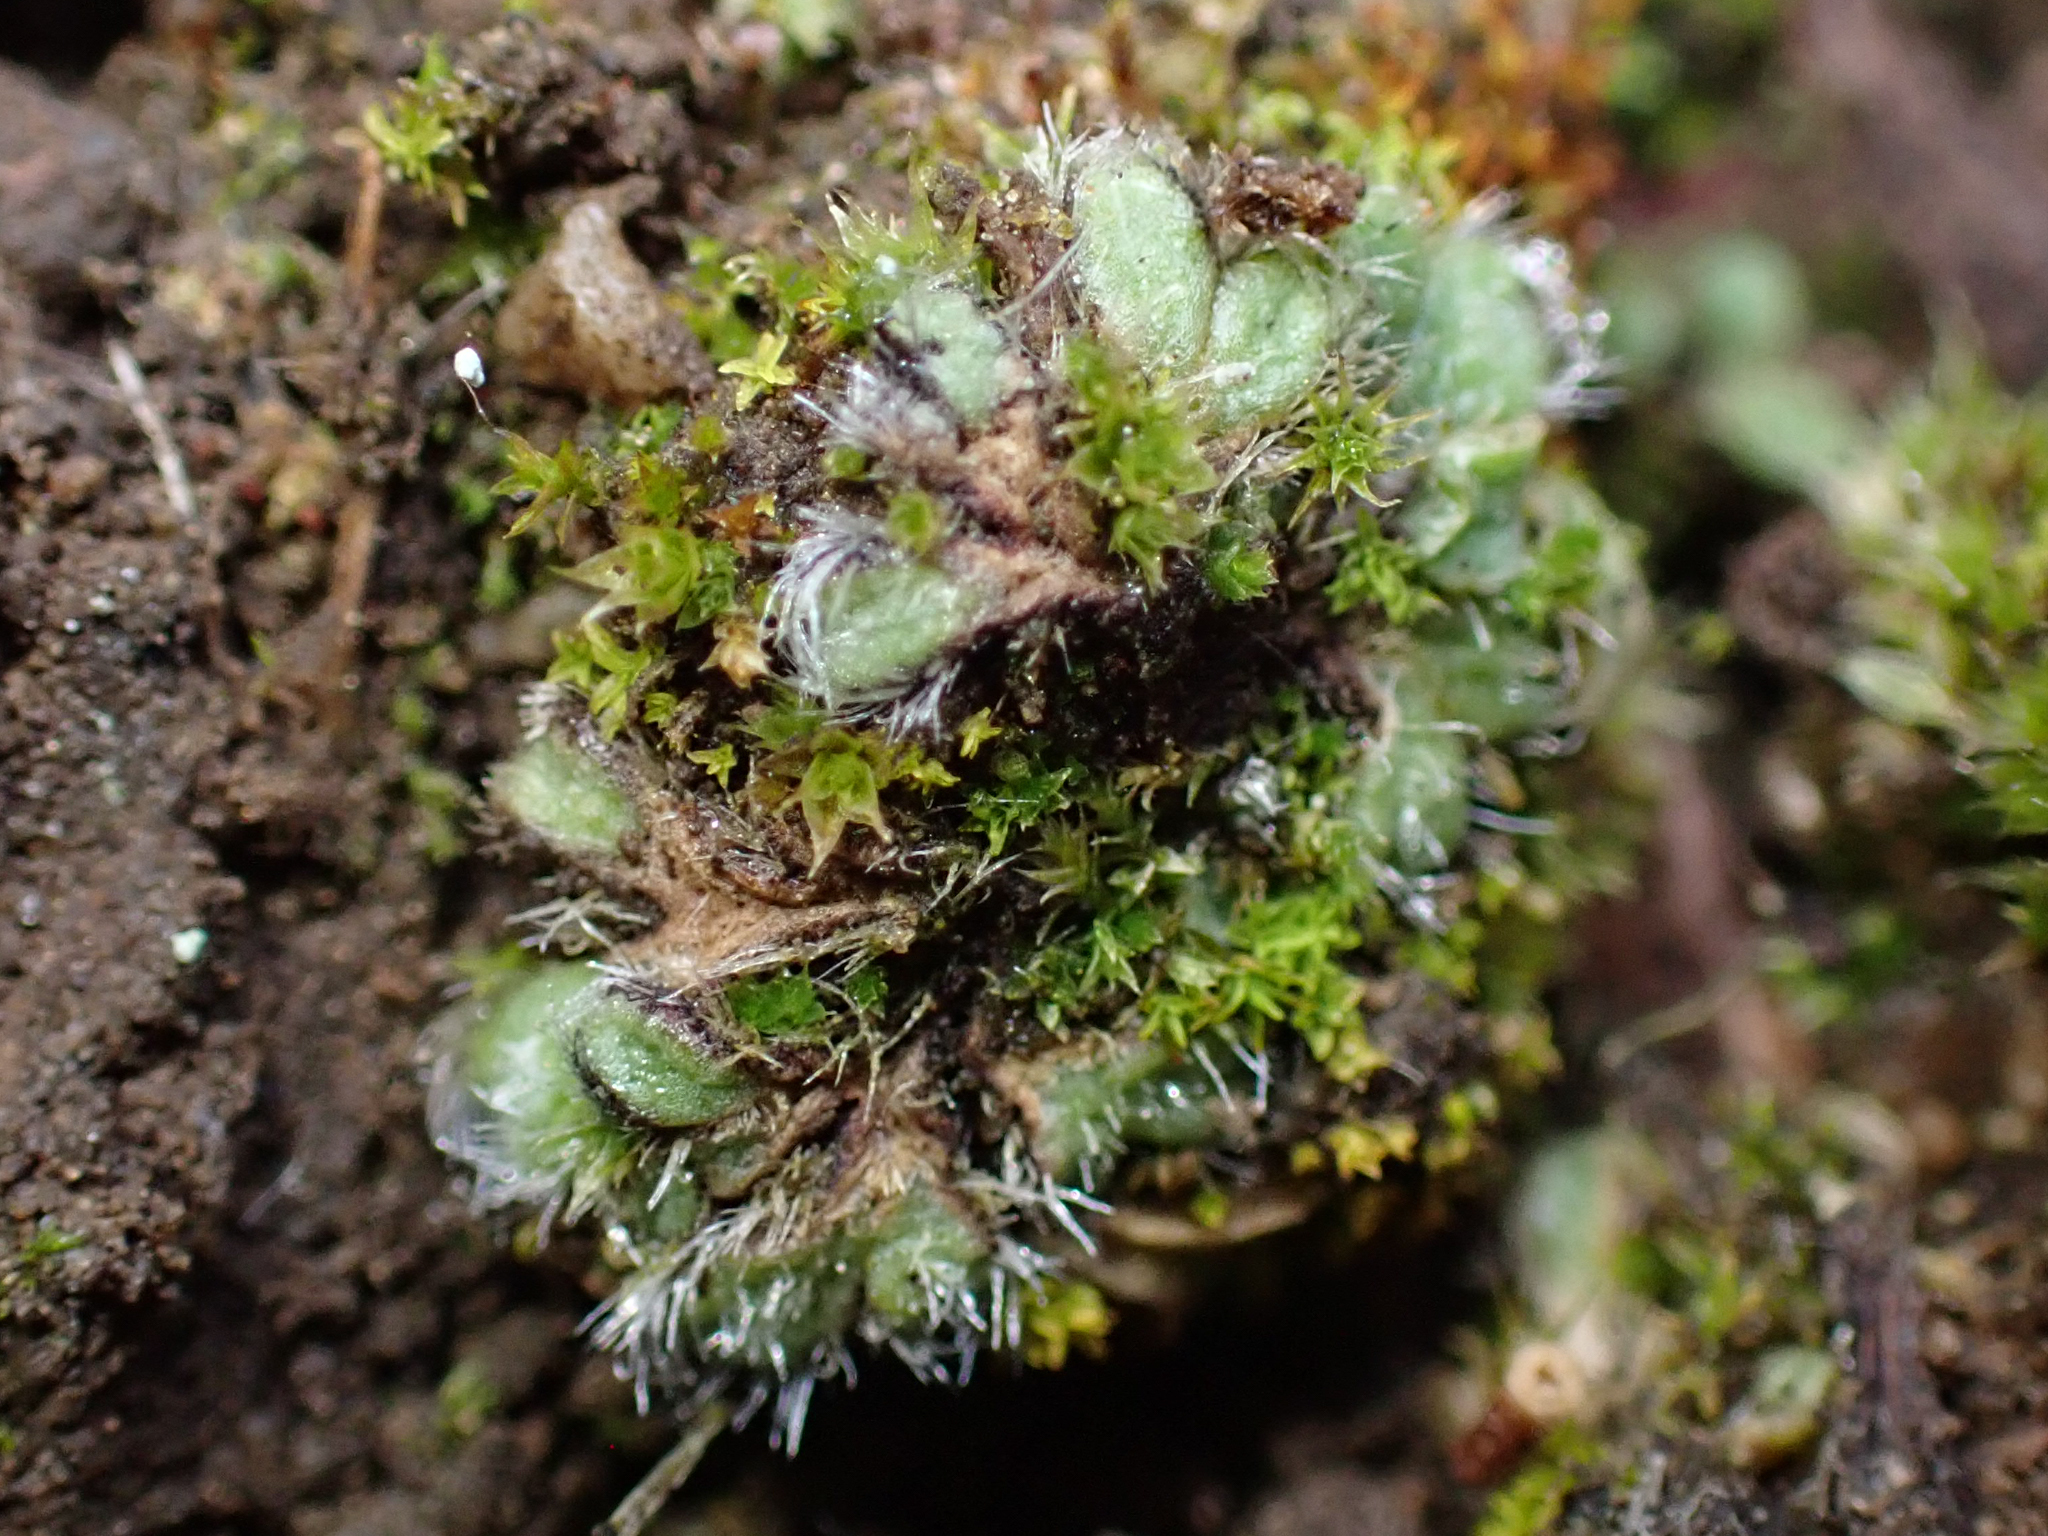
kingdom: Plantae
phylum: Marchantiophyta
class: Marchantiopsida
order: Marchantiales
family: Ricciaceae
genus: Riccia
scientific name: Riccia trichocarpa
